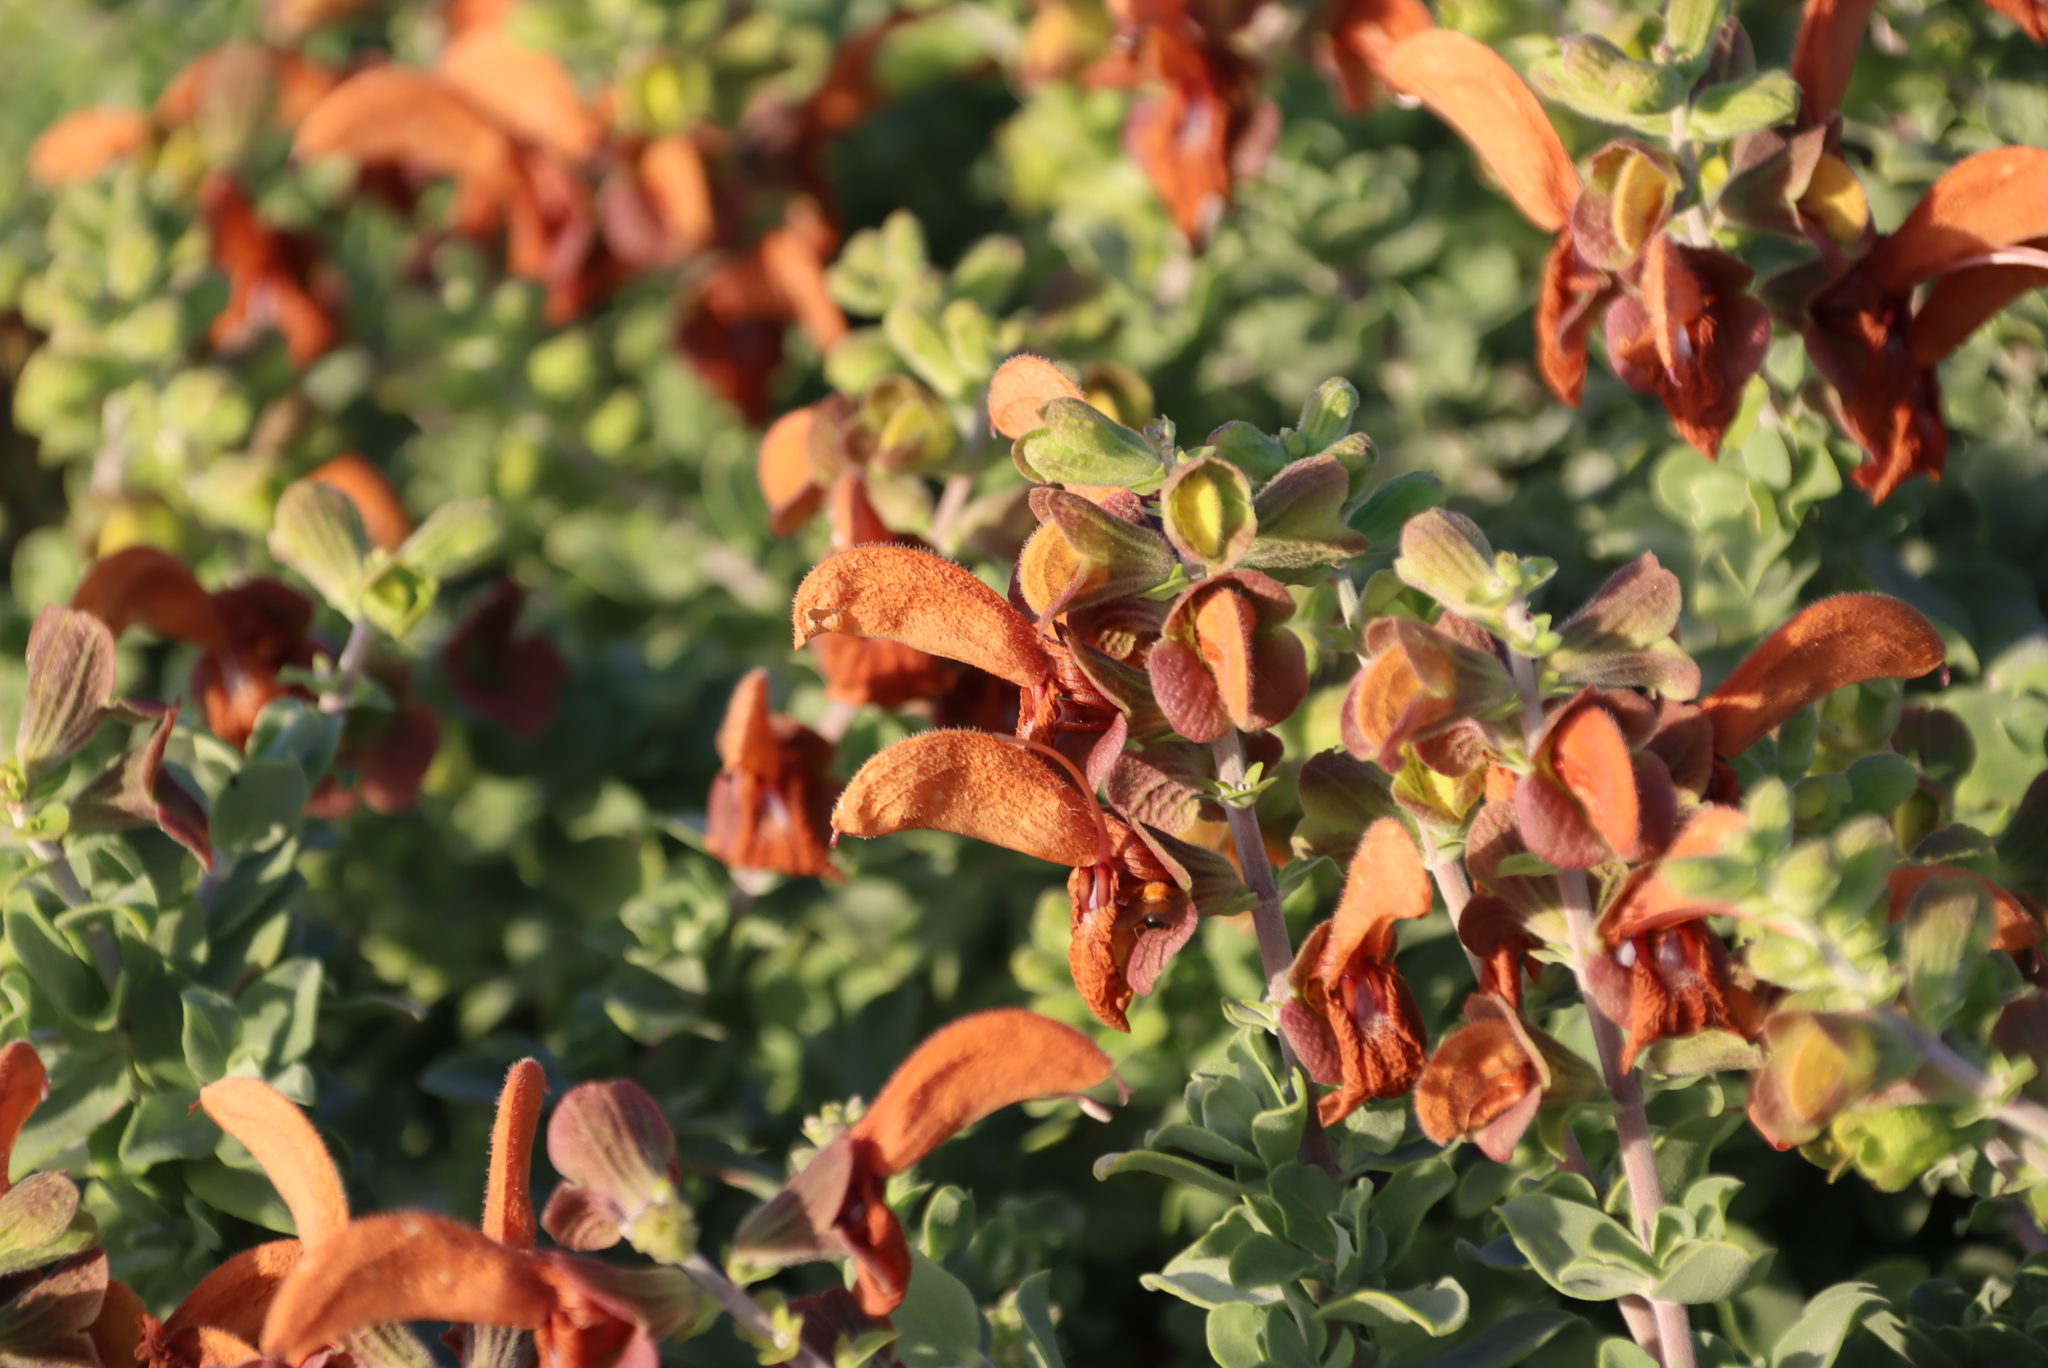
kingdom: Plantae
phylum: Tracheophyta
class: Magnoliopsida
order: Lamiales
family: Lamiaceae
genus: Salvia
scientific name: Salvia aurea
